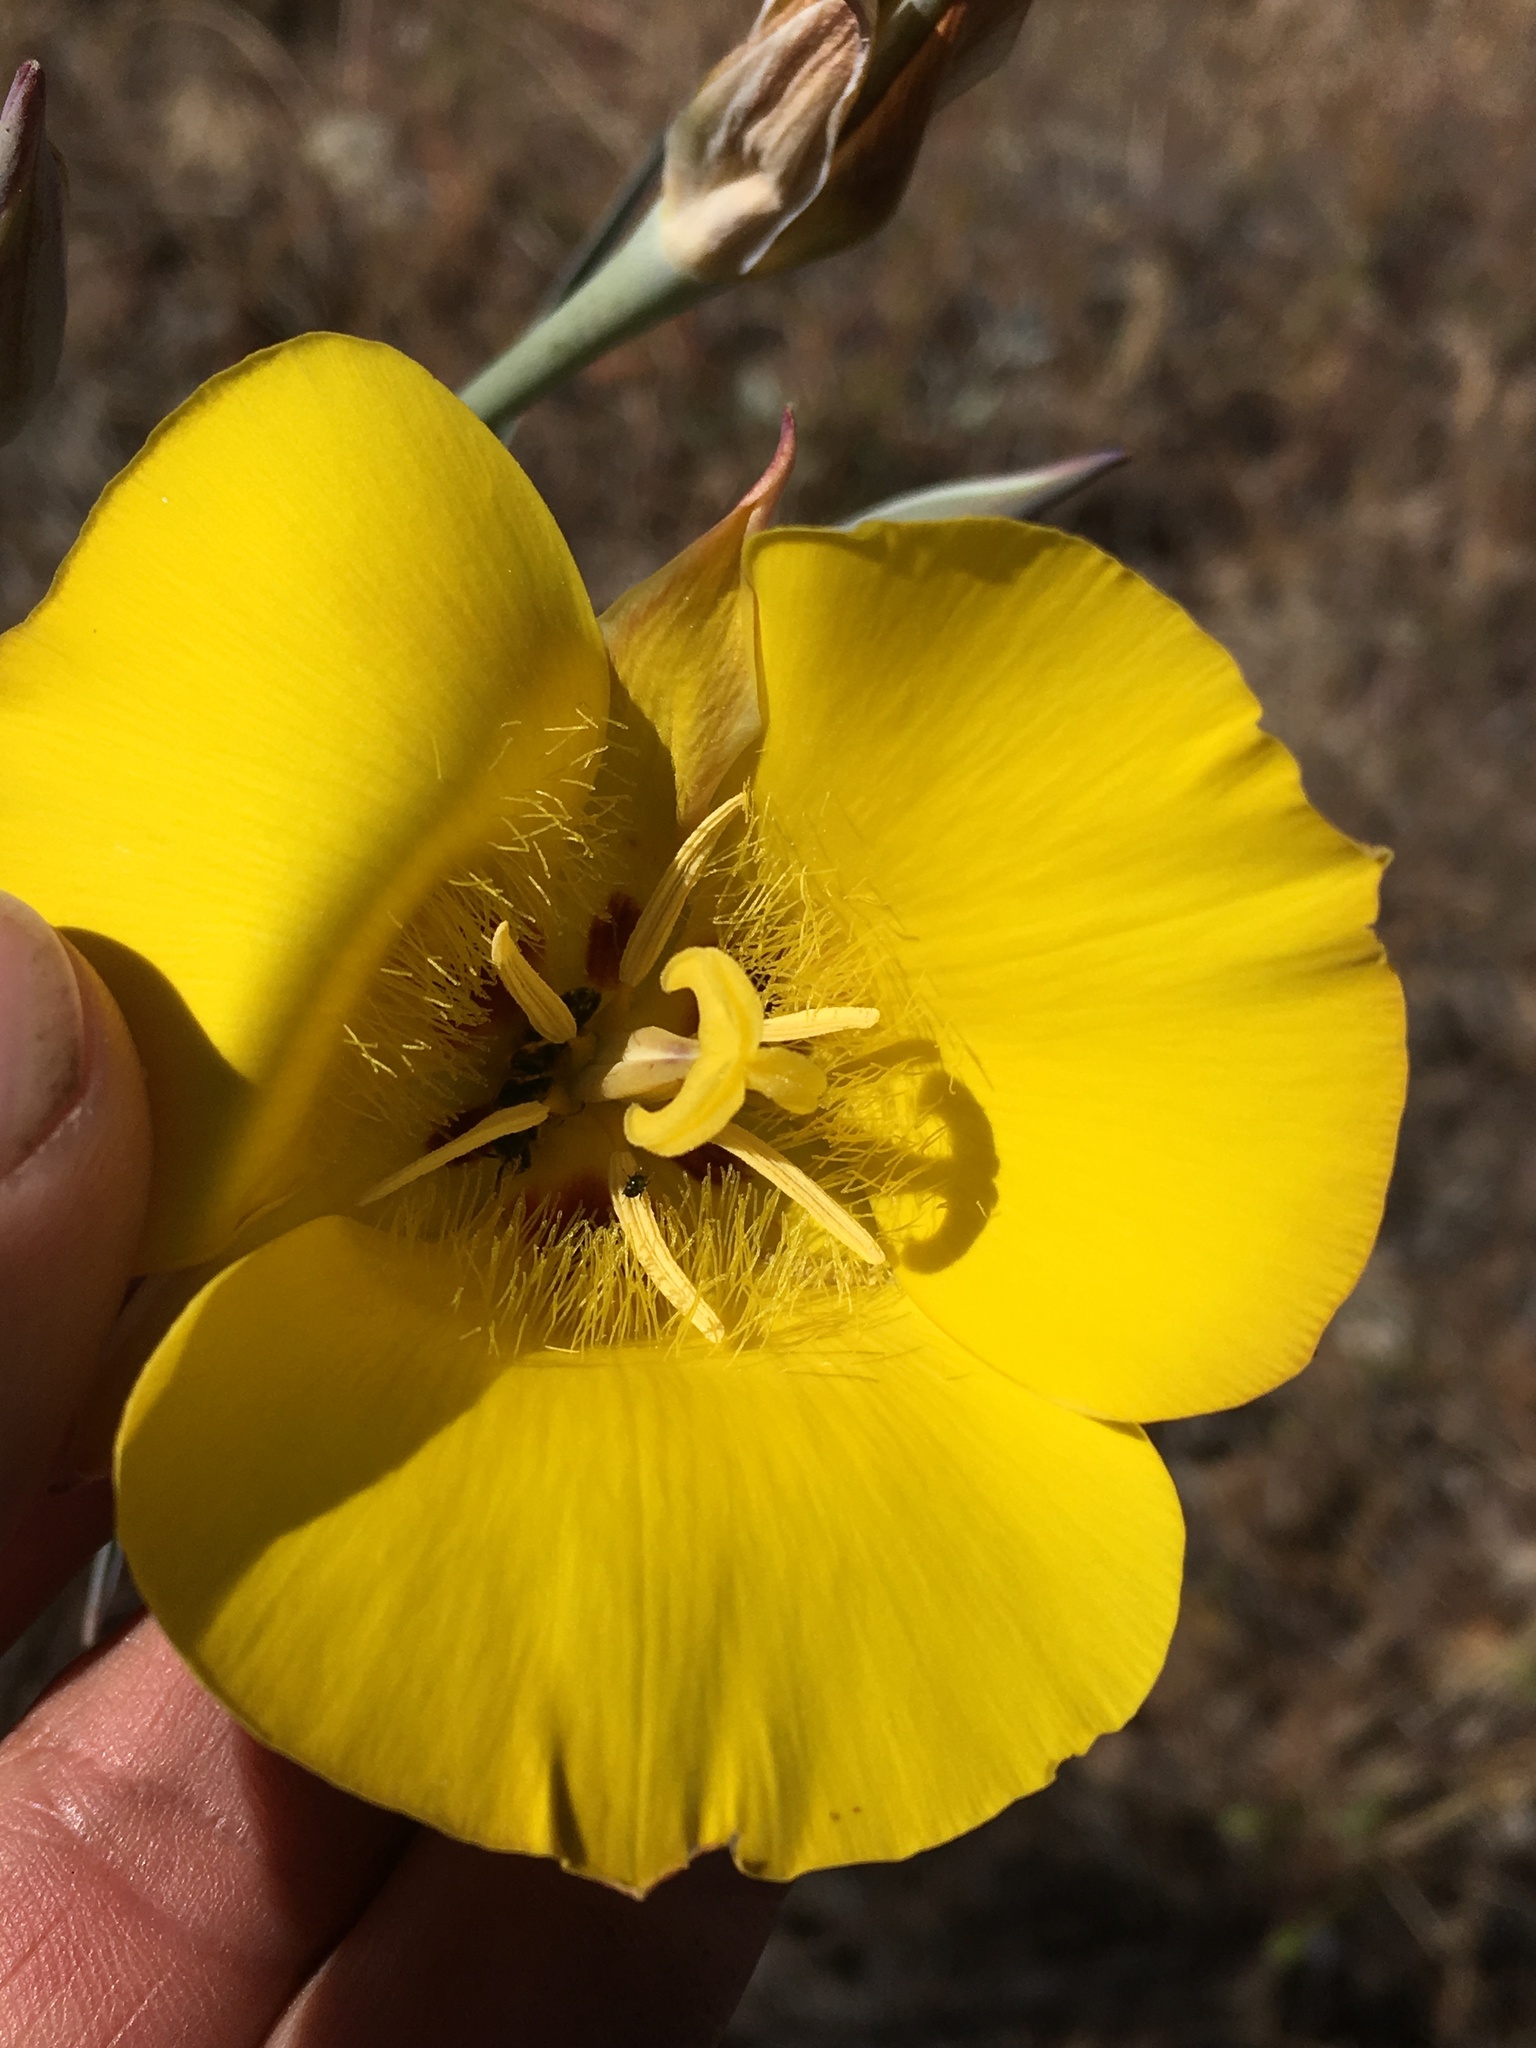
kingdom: Plantae
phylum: Tracheophyta
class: Liliopsida
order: Liliales
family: Liliaceae
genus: Calochortus
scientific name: Calochortus concolor
